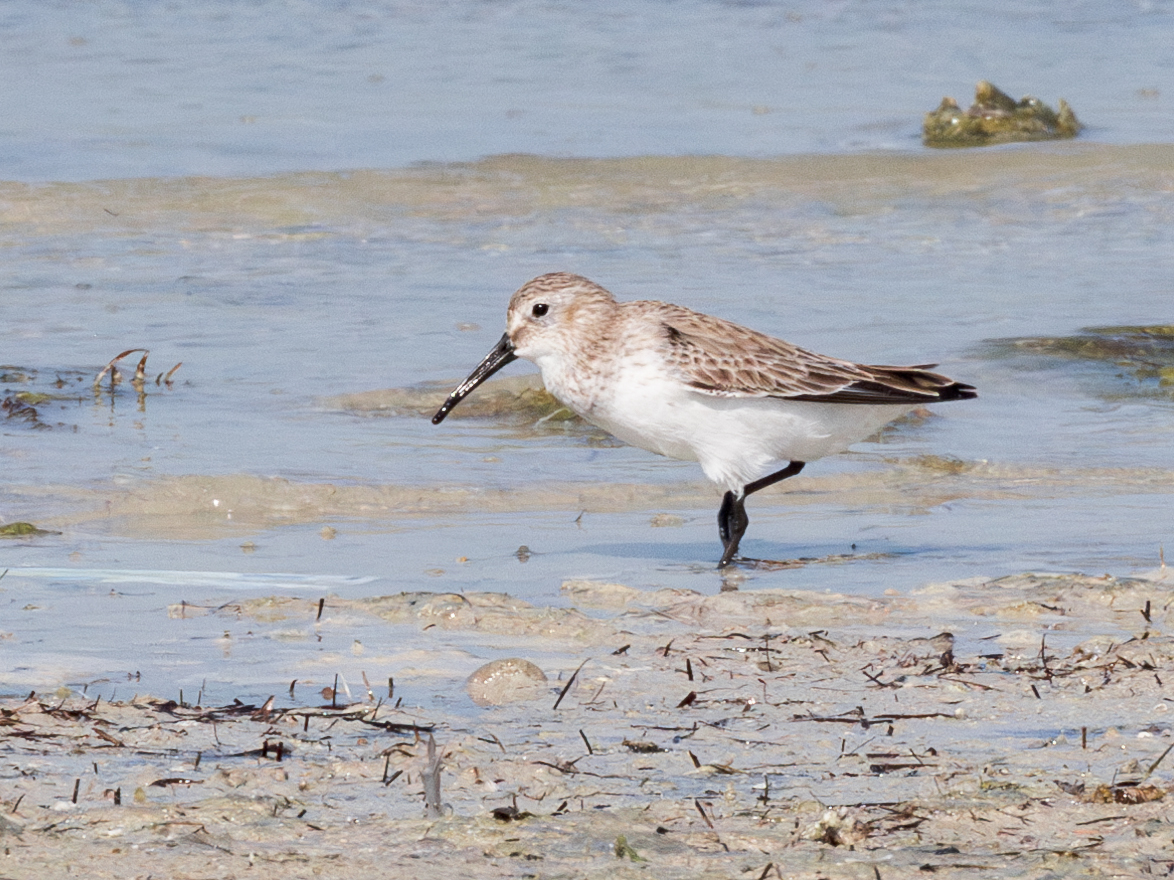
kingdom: Animalia
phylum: Chordata
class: Aves
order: Charadriiformes
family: Scolopacidae
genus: Calidris
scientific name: Calidris alpina
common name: Dunlin
